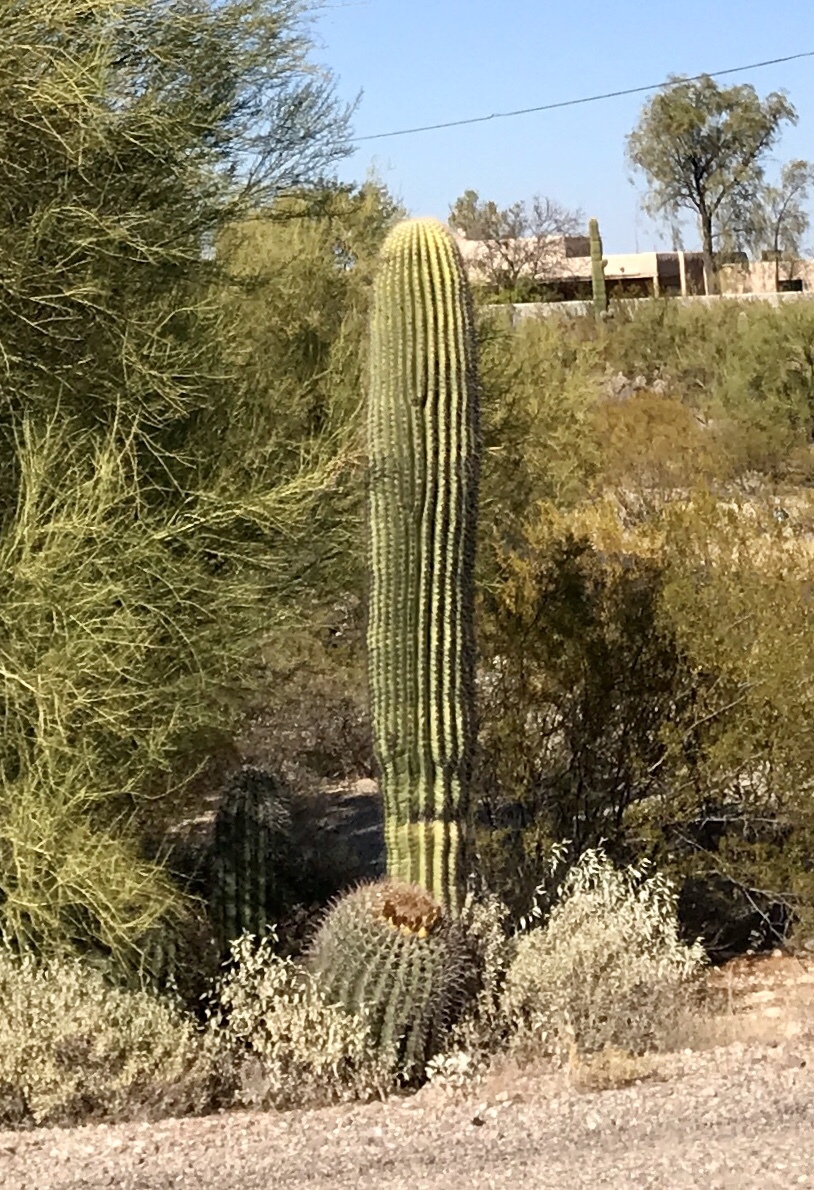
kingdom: Plantae
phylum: Tracheophyta
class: Magnoliopsida
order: Caryophyllales
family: Cactaceae
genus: Carnegiea
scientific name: Carnegiea gigantea
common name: Saguaro
